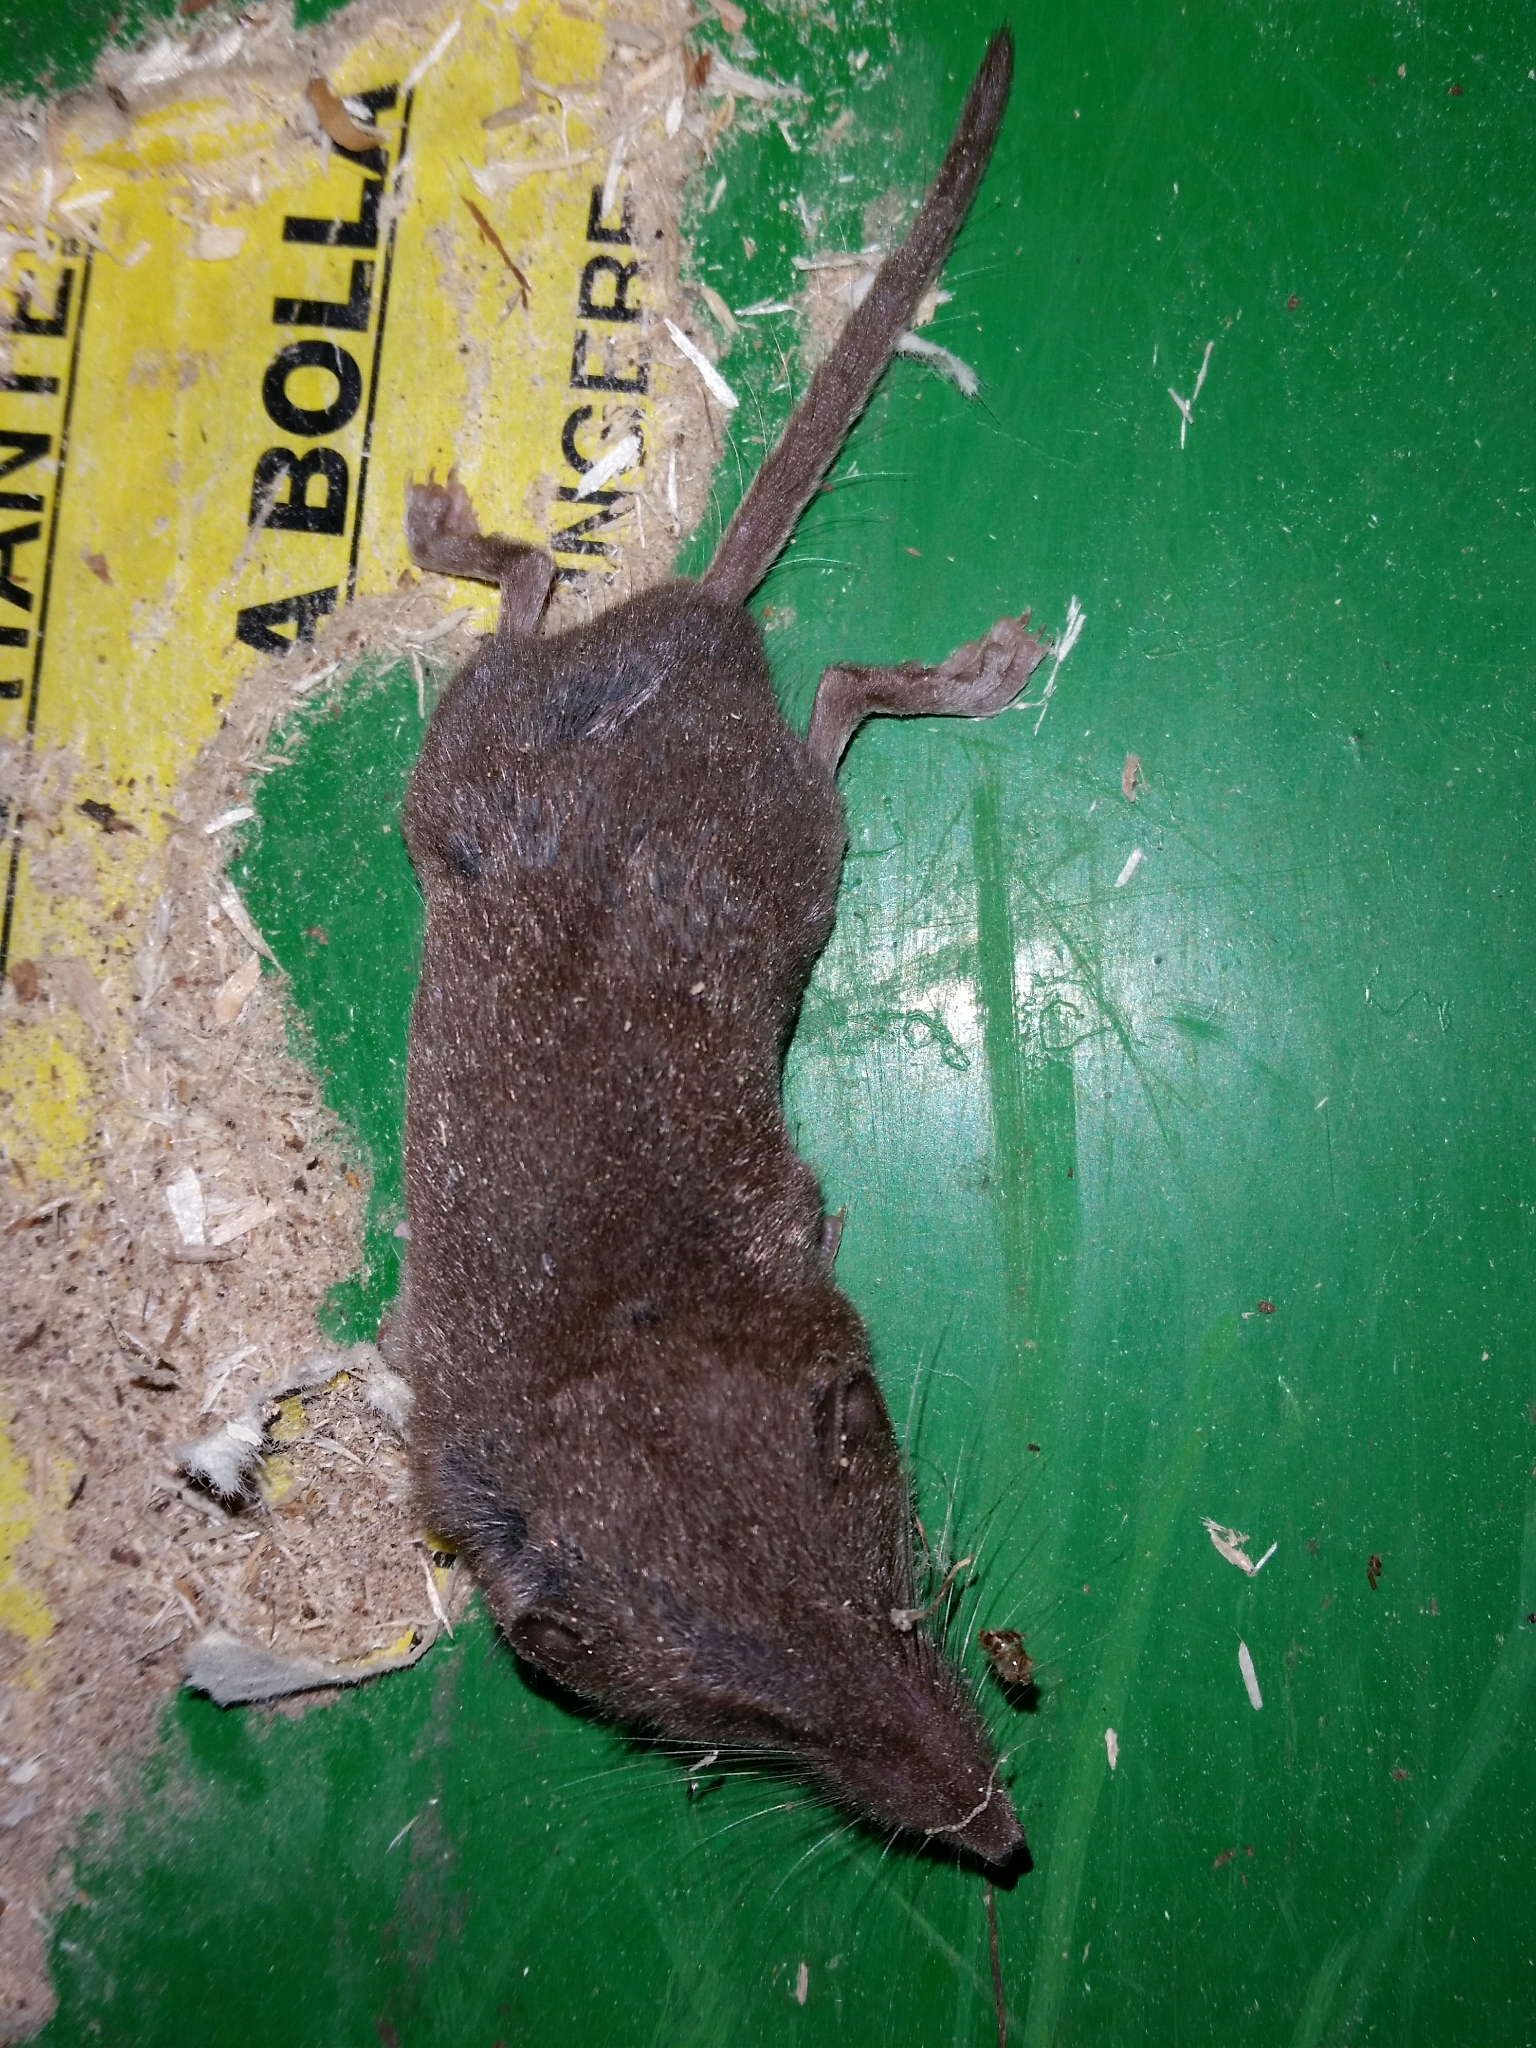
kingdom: Animalia
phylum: Chordata
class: Mammalia
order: Soricomorpha
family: Soricidae
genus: Crocidura
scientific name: Crocidura suaveolens
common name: Lesser white-toothed shrew
